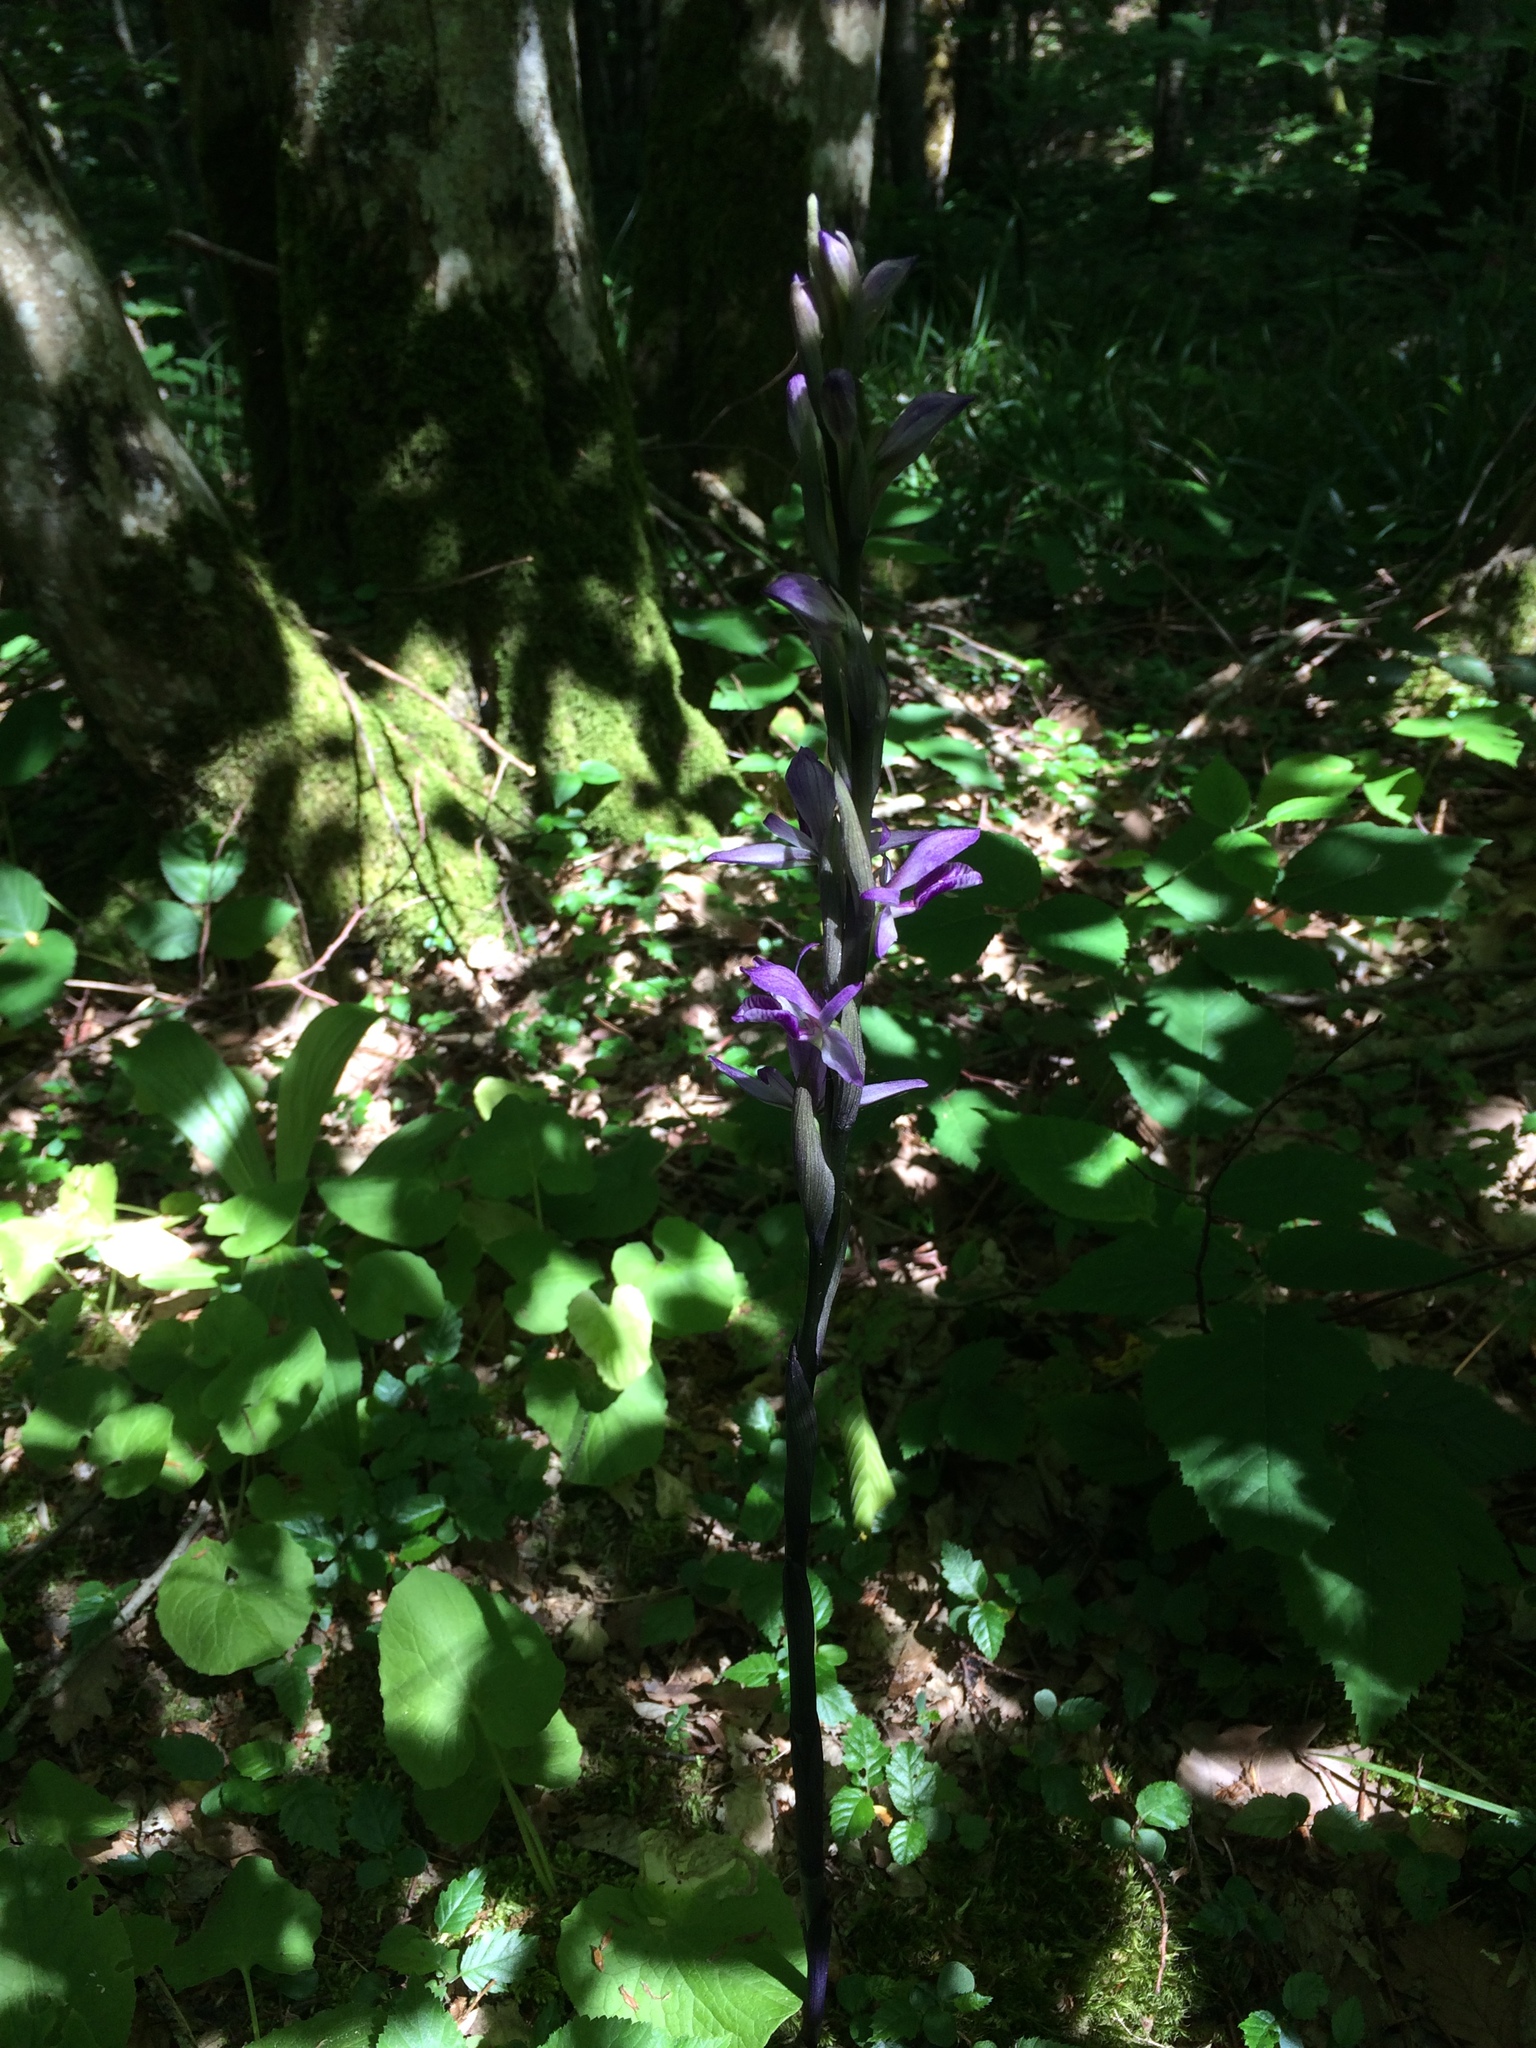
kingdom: Plantae
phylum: Tracheophyta
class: Liliopsida
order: Asparagales
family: Orchidaceae
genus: Limodorum
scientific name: Limodorum abortivum
